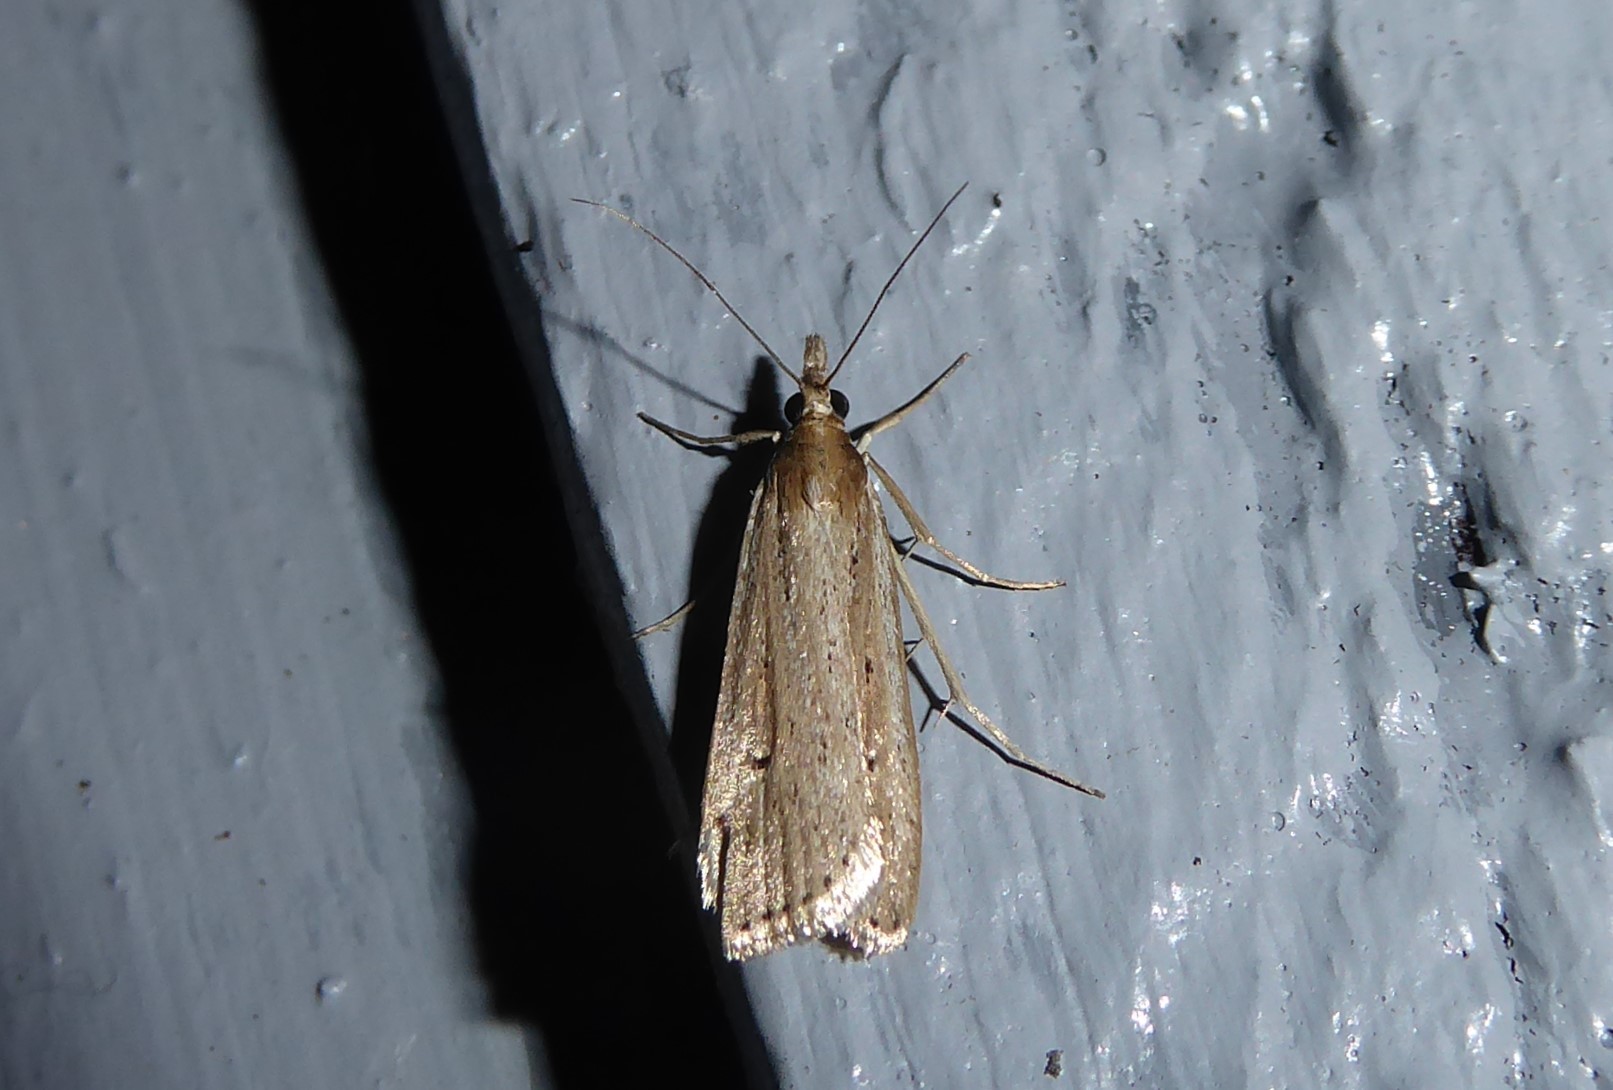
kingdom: Animalia
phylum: Arthropoda
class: Insecta
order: Lepidoptera
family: Crambidae
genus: Eudonia
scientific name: Eudonia sabulosella
